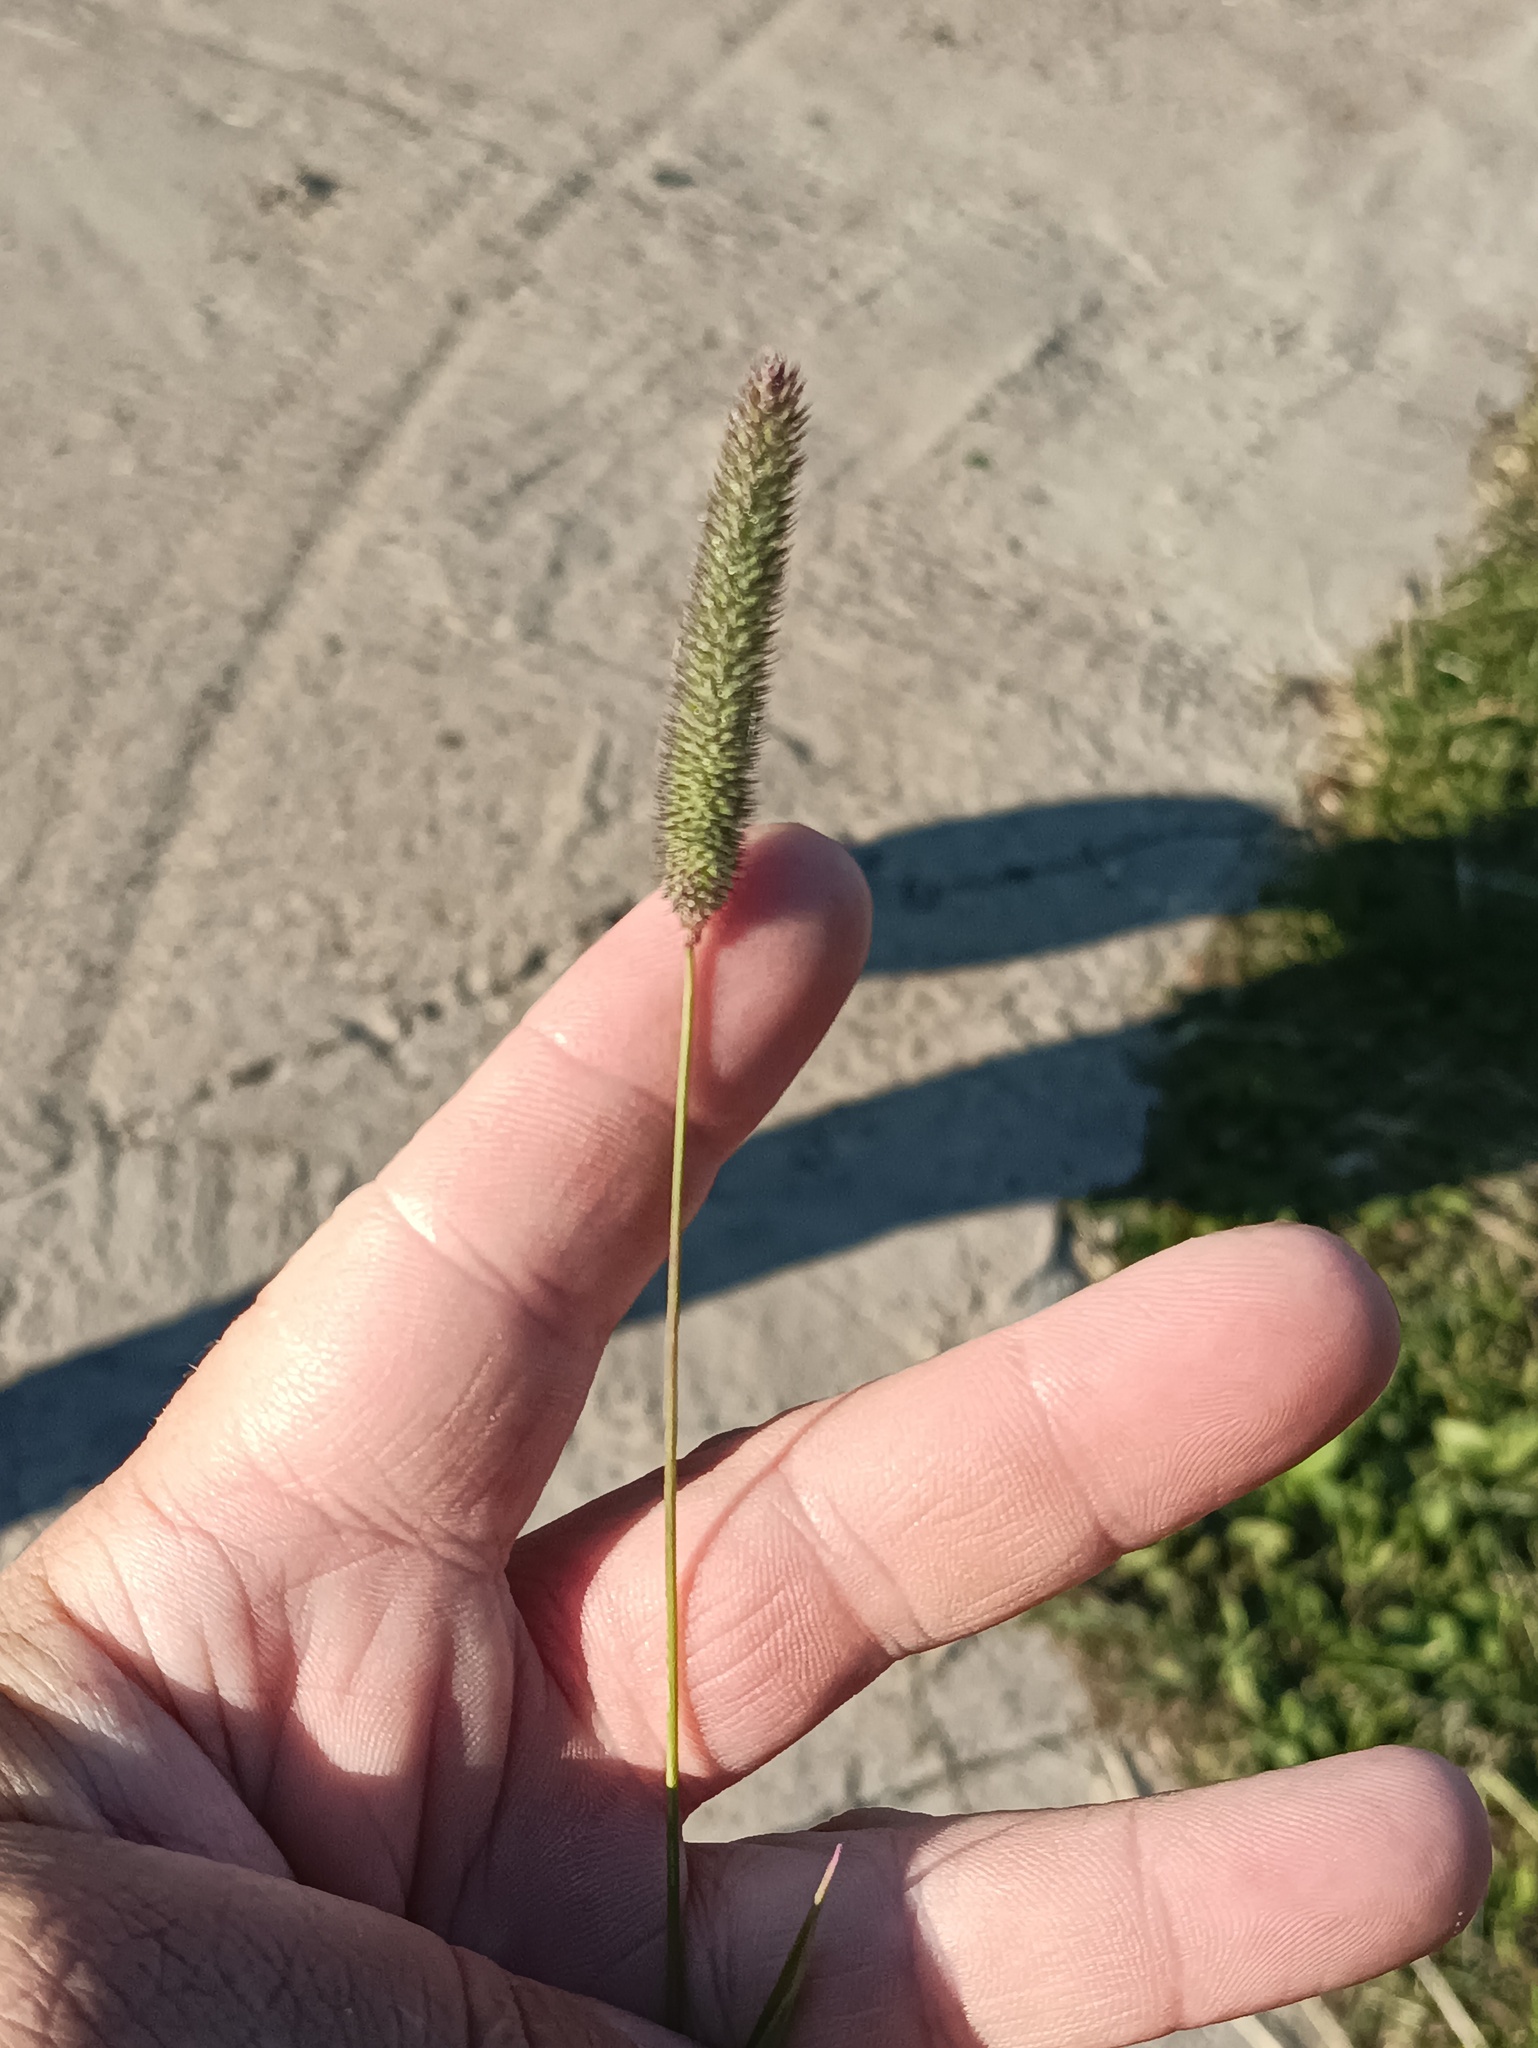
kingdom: Plantae
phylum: Tracheophyta
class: Liliopsida
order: Poales
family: Poaceae
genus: Phleum
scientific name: Phleum pratense
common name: Timothy grass
